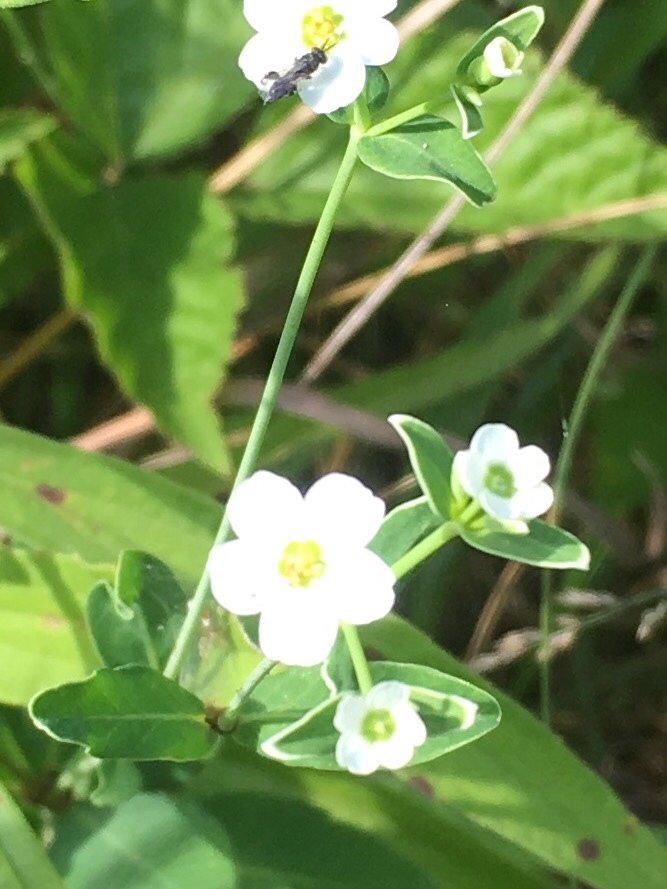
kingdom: Plantae
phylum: Tracheophyta
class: Magnoliopsida
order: Malpighiales
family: Euphorbiaceae
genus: Euphorbia
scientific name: Euphorbia corollata
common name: Flowering spurge
